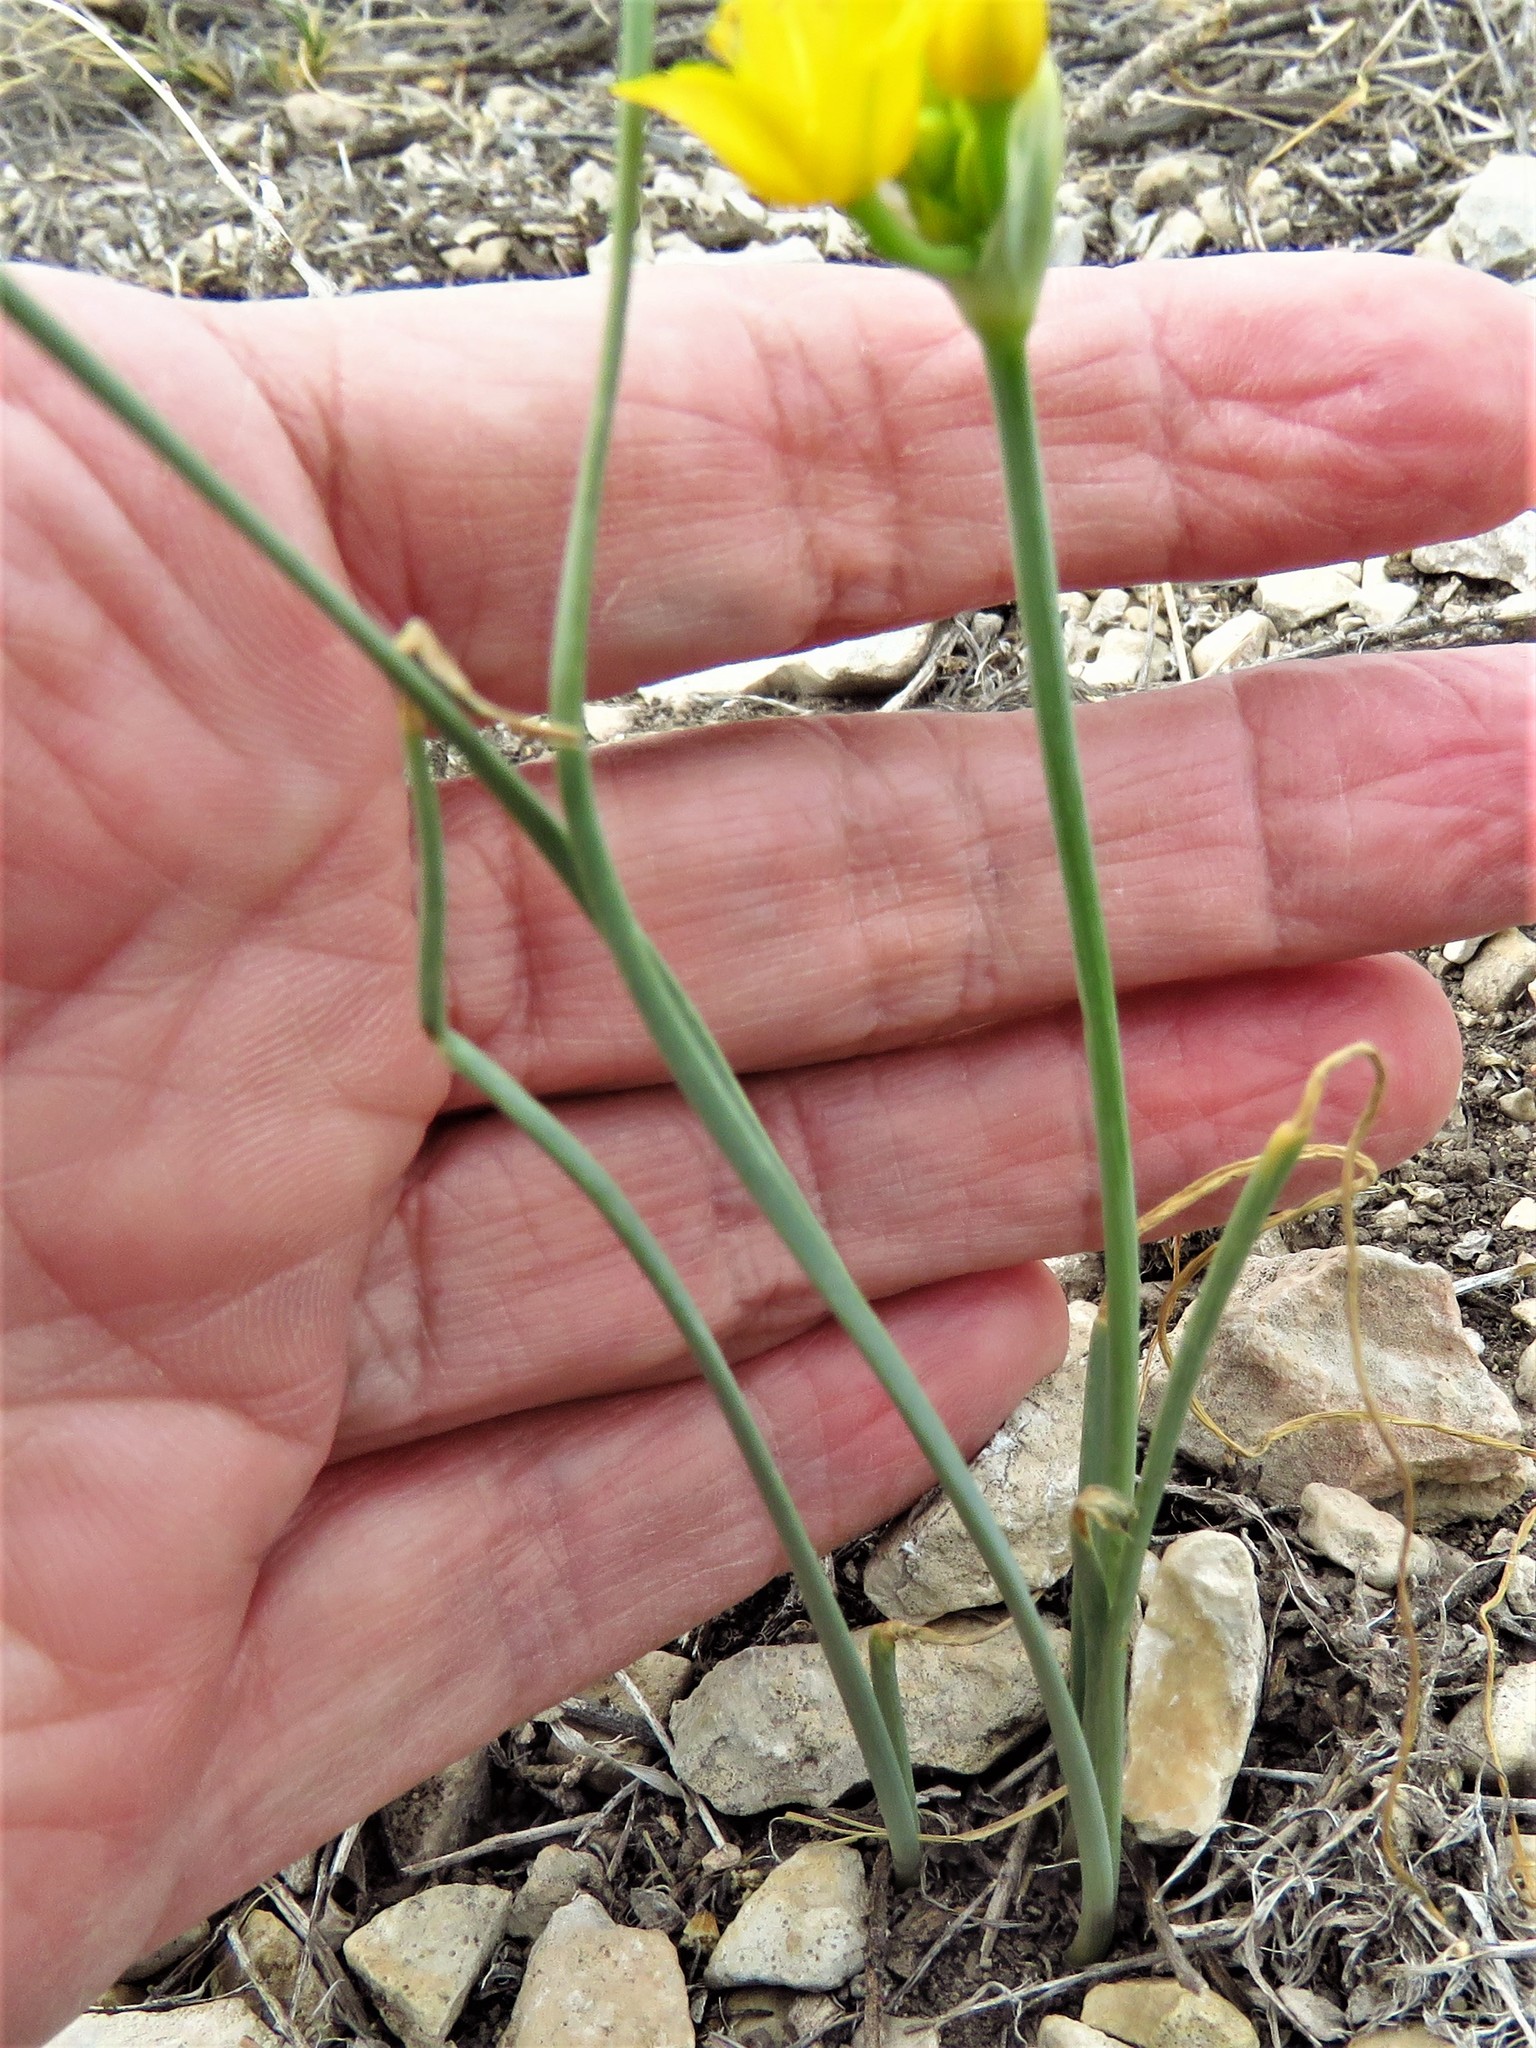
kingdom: Plantae
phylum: Tracheophyta
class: Liliopsida
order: Asparagales
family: Amaryllidaceae
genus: Allium
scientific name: Allium coryi
